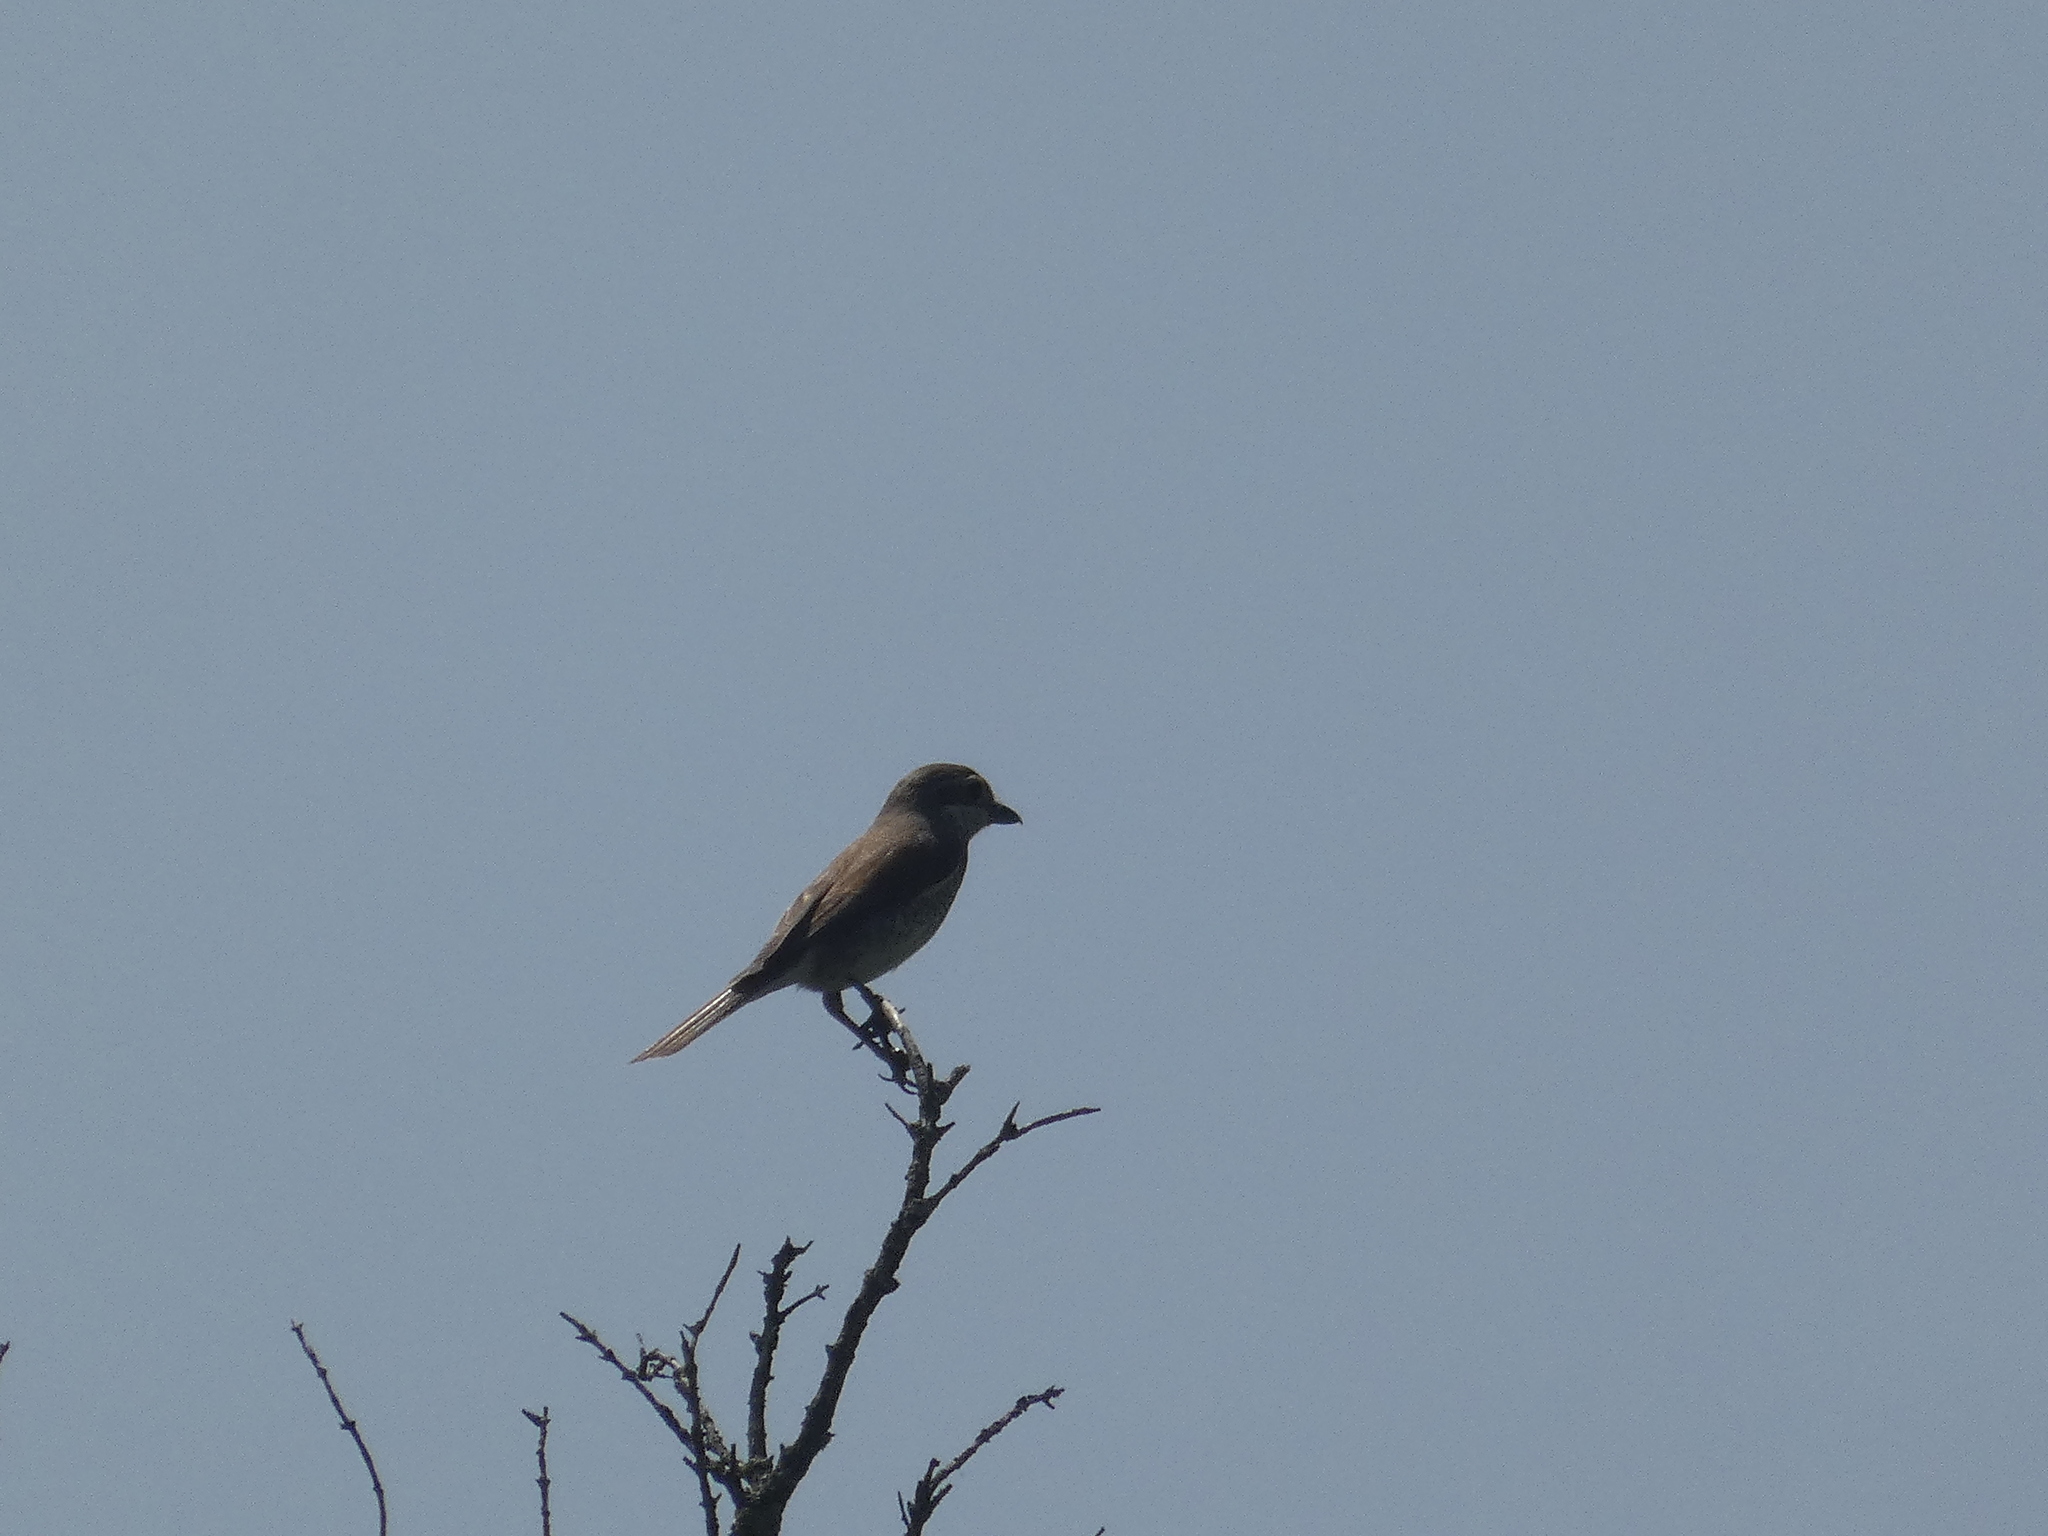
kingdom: Animalia
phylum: Chordata
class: Aves
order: Passeriformes
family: Laniidae
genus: Lanius
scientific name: Lanius collurio
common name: Red-backed shrike
